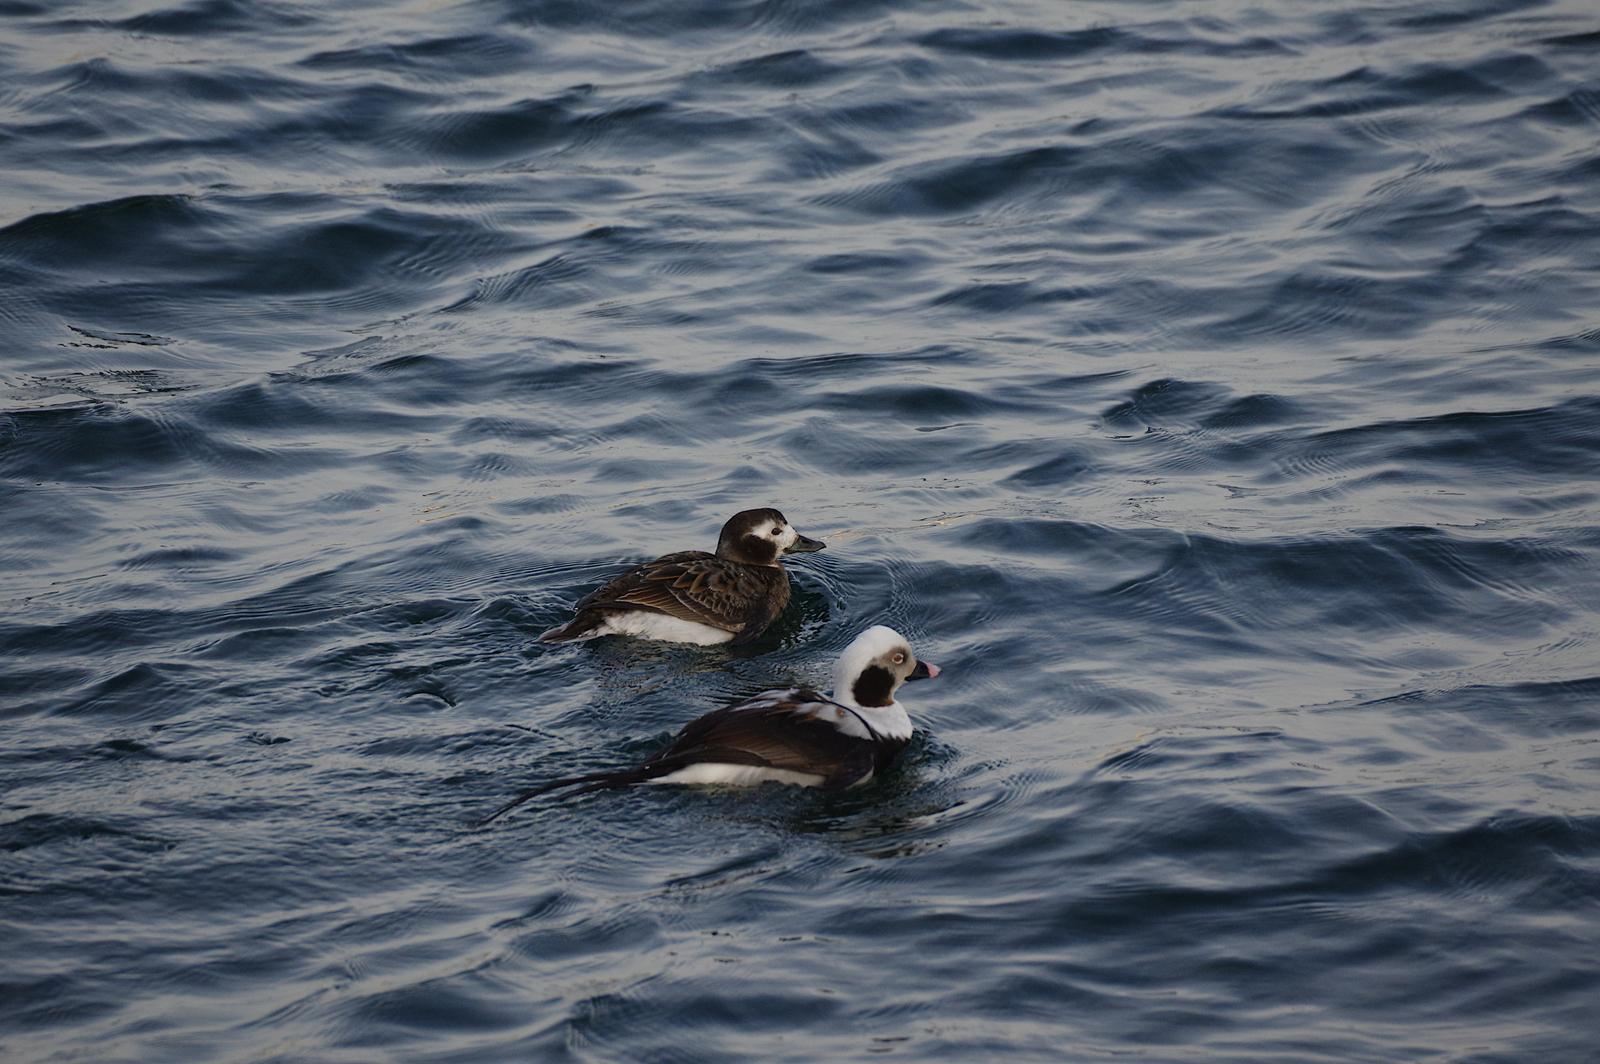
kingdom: Animalia
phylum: Chordata
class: Aves
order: Anseriformes
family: Anatidae
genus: Clangula
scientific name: Clangula hyemalis
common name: Long-tailed duck
